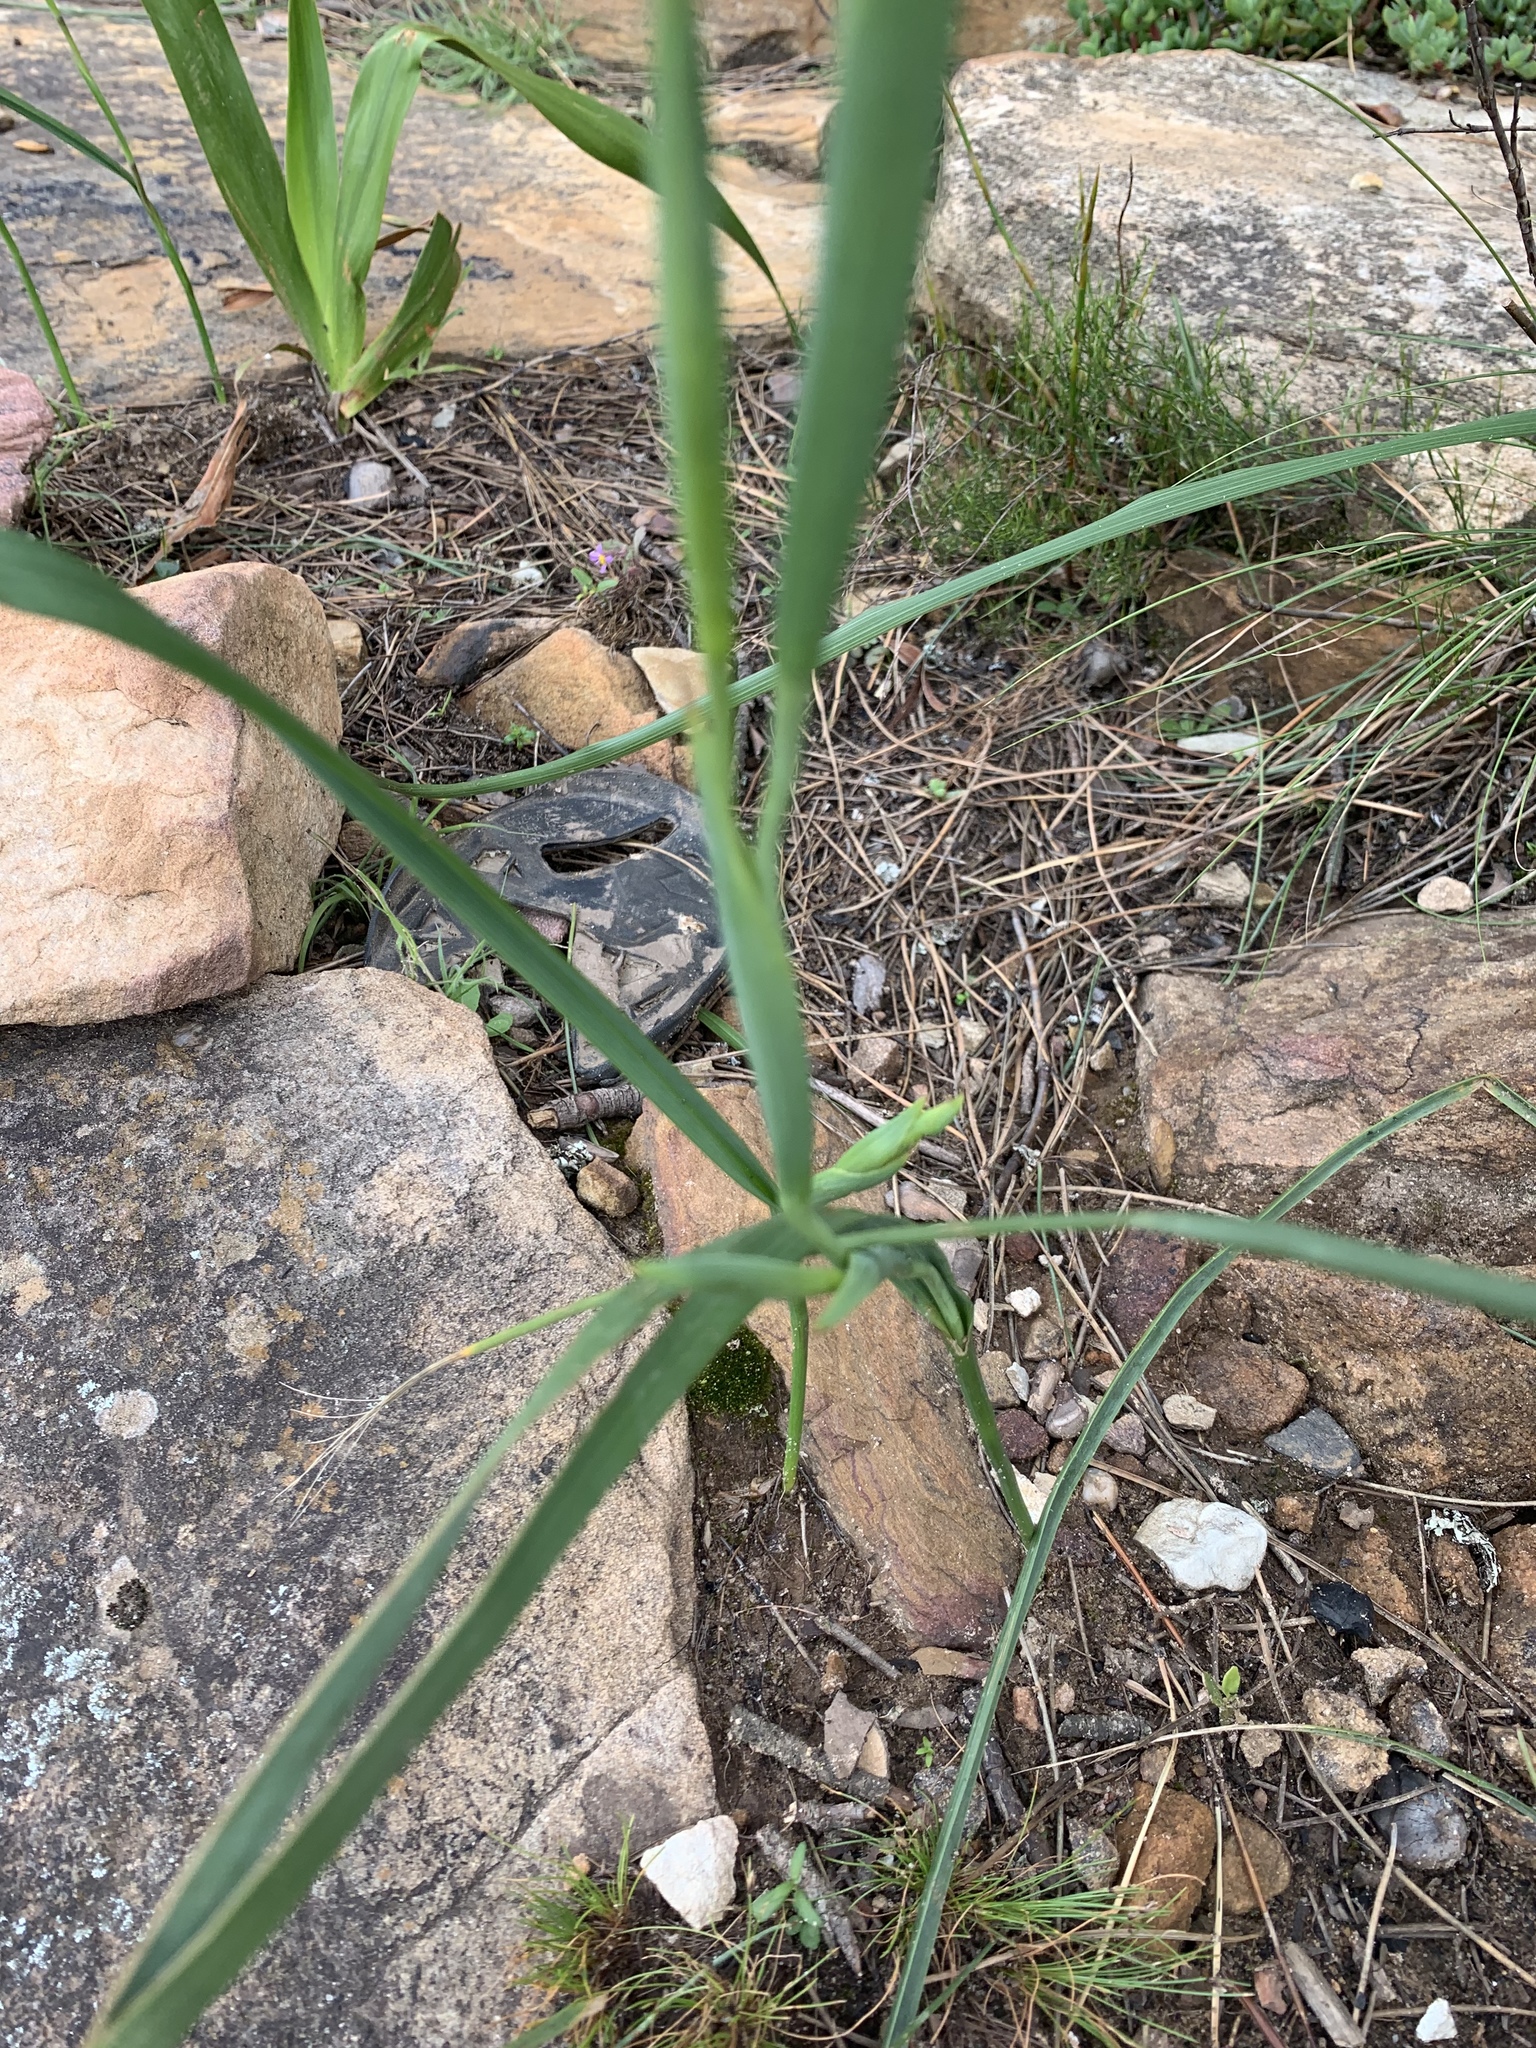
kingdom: Plantae
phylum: Tracheophyta
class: Liliopsida
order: Asparagales
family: Iridaceae
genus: Moraea
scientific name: Moraea ochroleuca
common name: Red tulp
